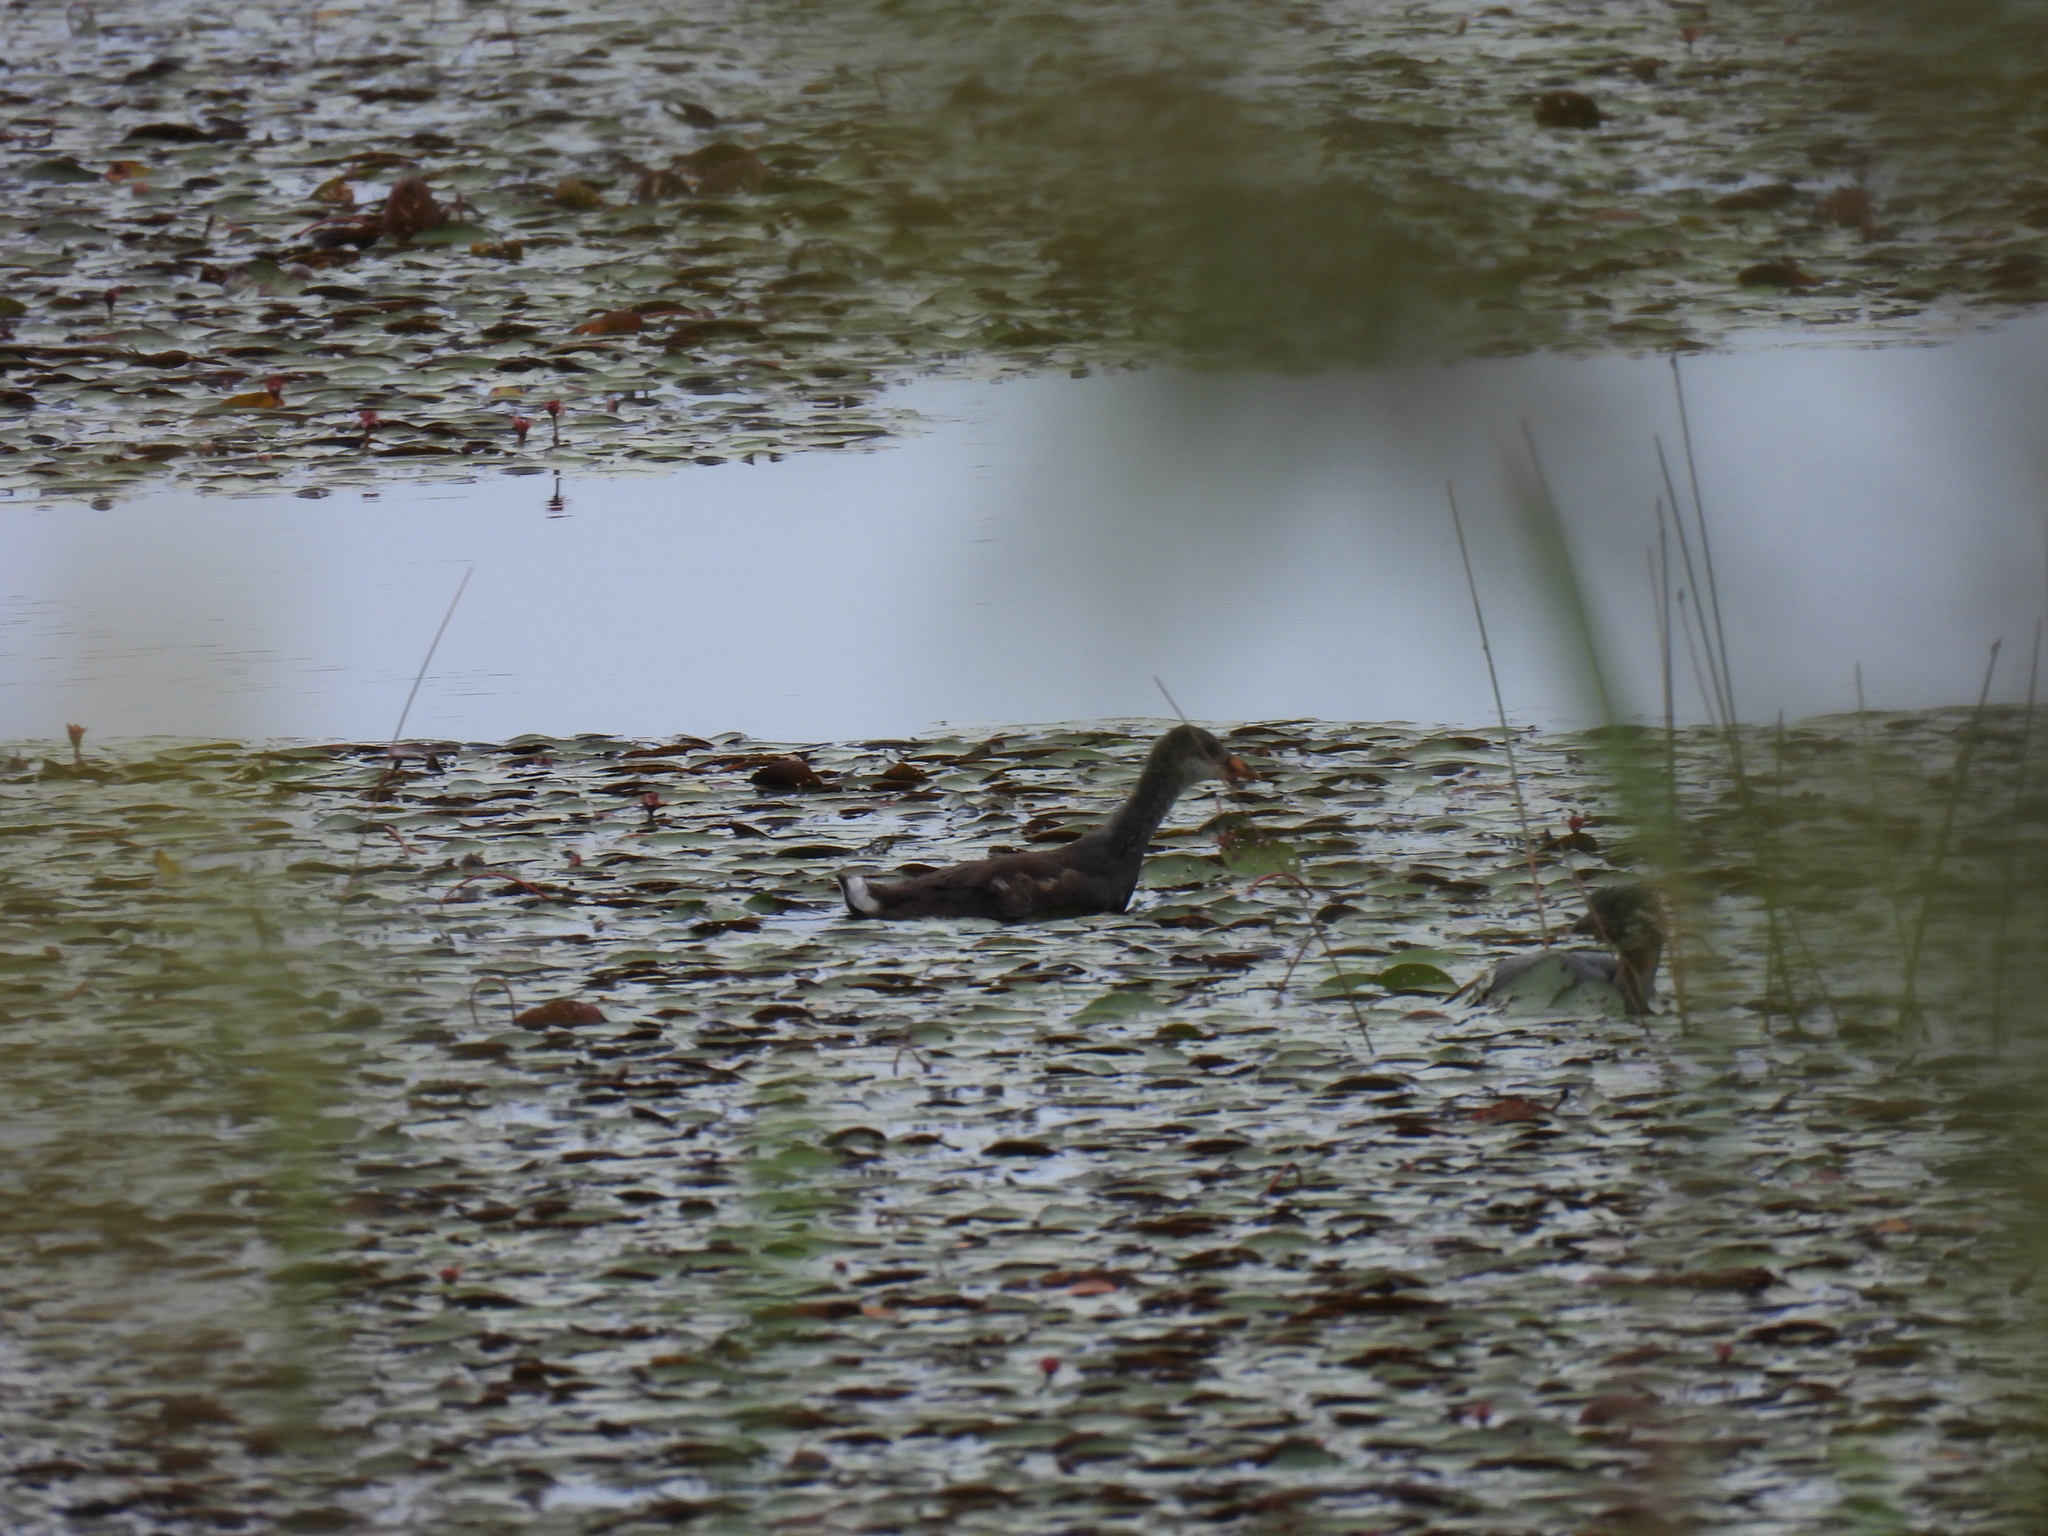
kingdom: Animalia
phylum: Chordata
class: Aves
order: Gruiformes
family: Rallidae
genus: Gallinula
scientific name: Gallinula chloropus
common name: Common moorhen
